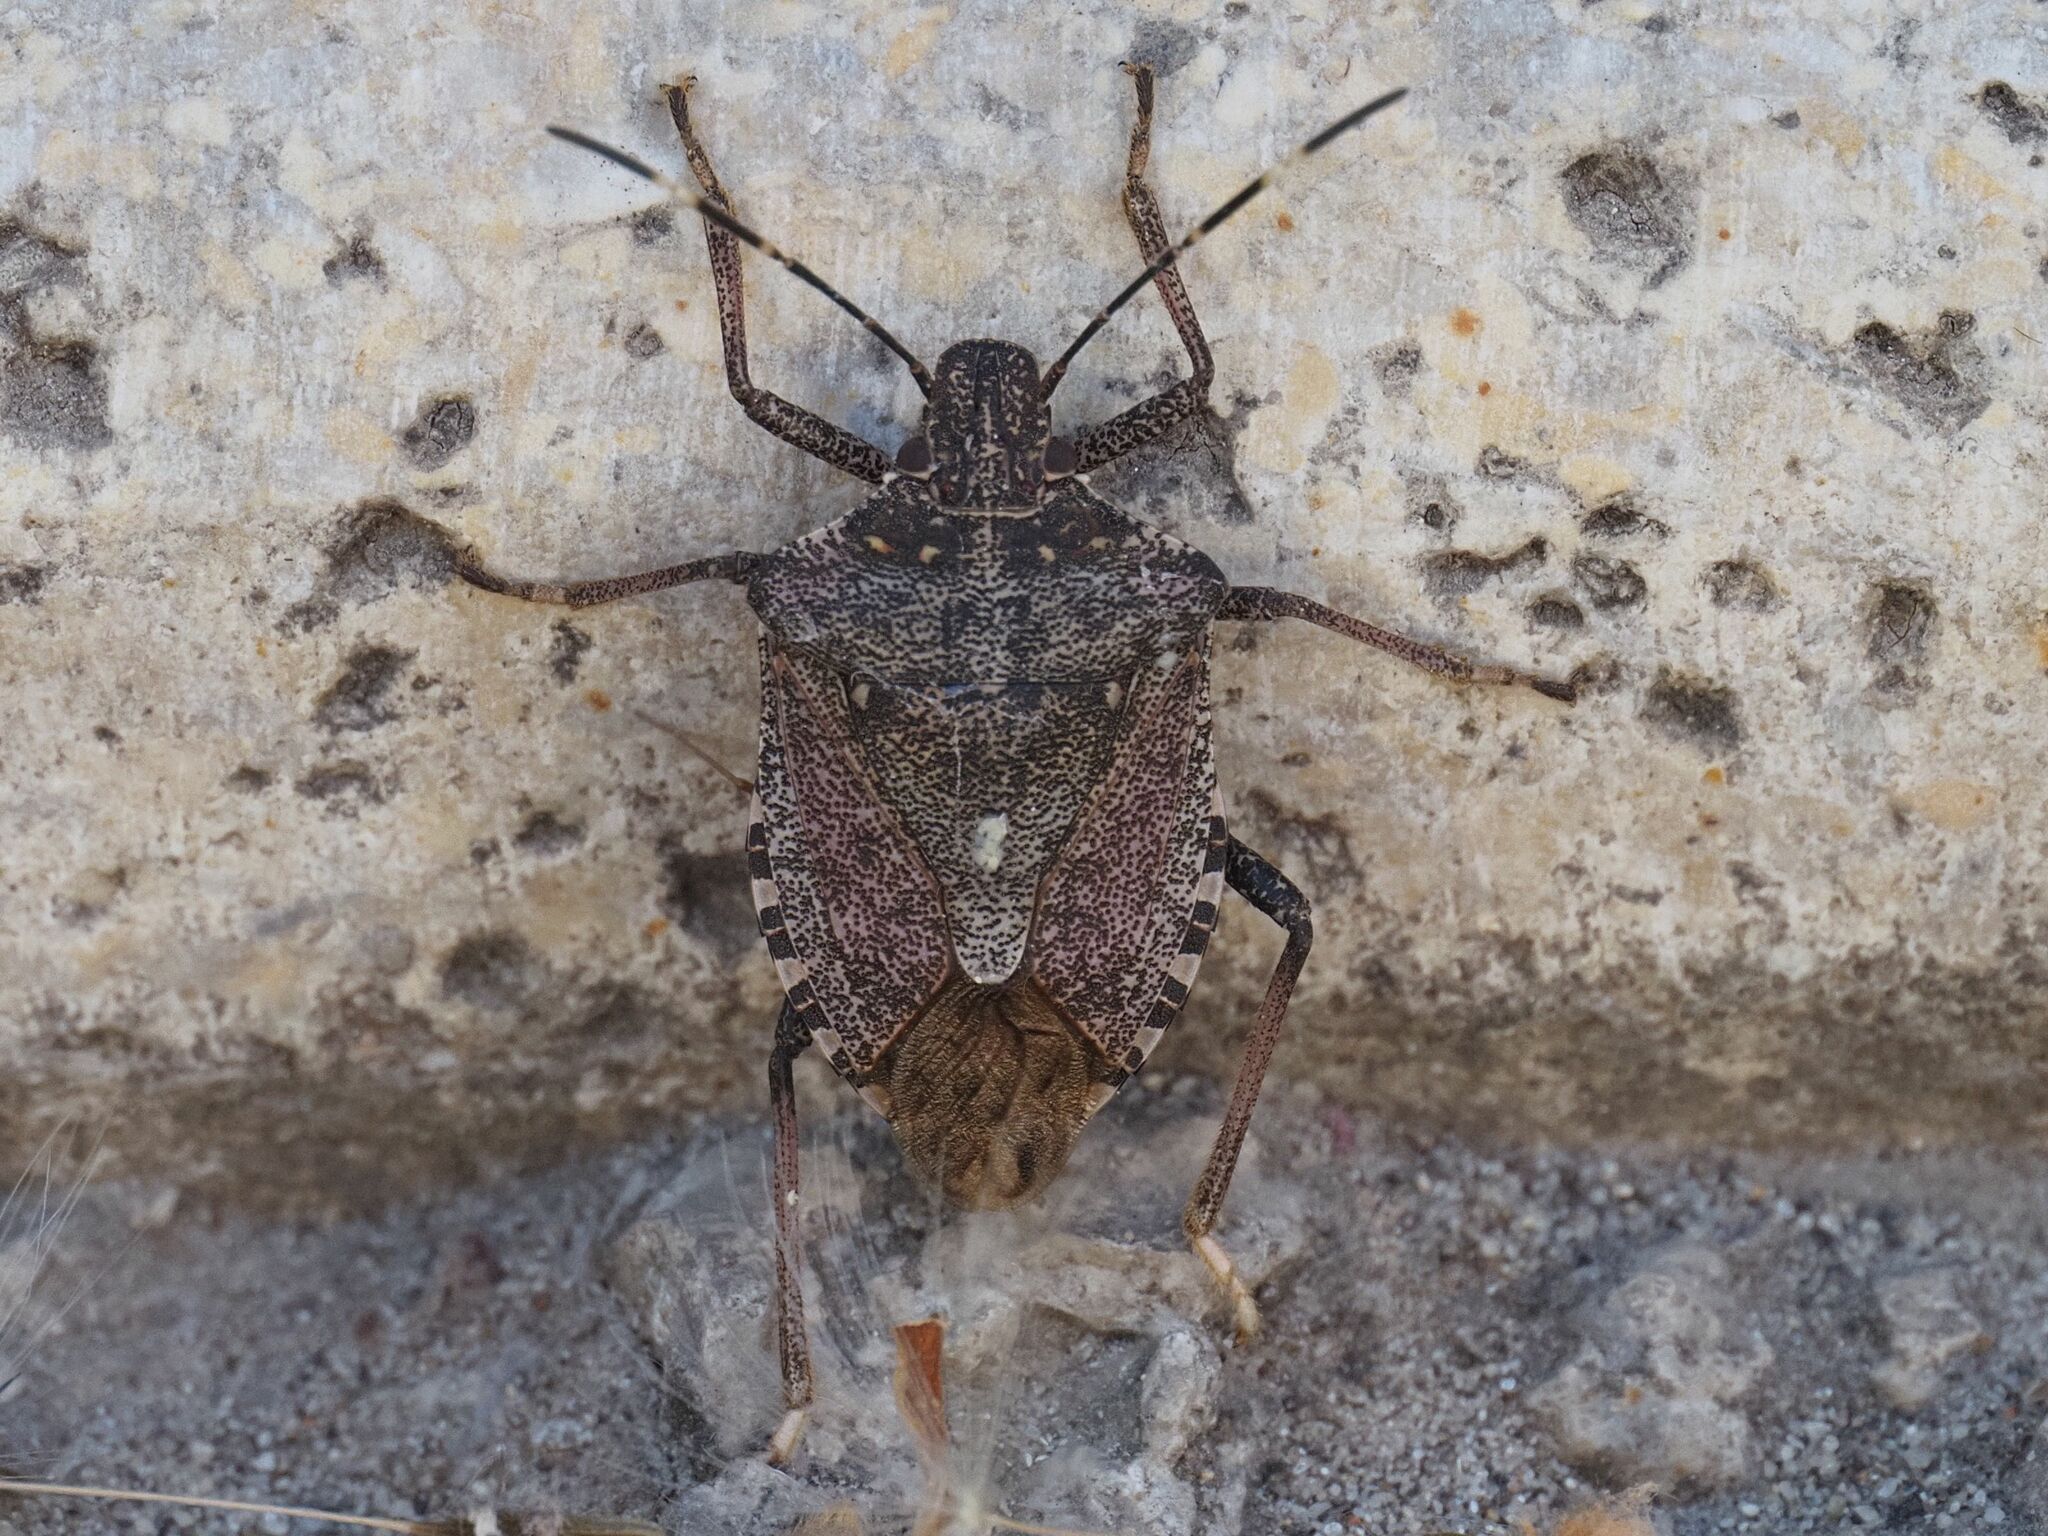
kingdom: Animalia
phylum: Arthropoda
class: Insecta
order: Hemiptera
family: Pentatomidae
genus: Halyomorpha
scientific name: Halyomorpha halys
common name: Brown marmorated stink bug
